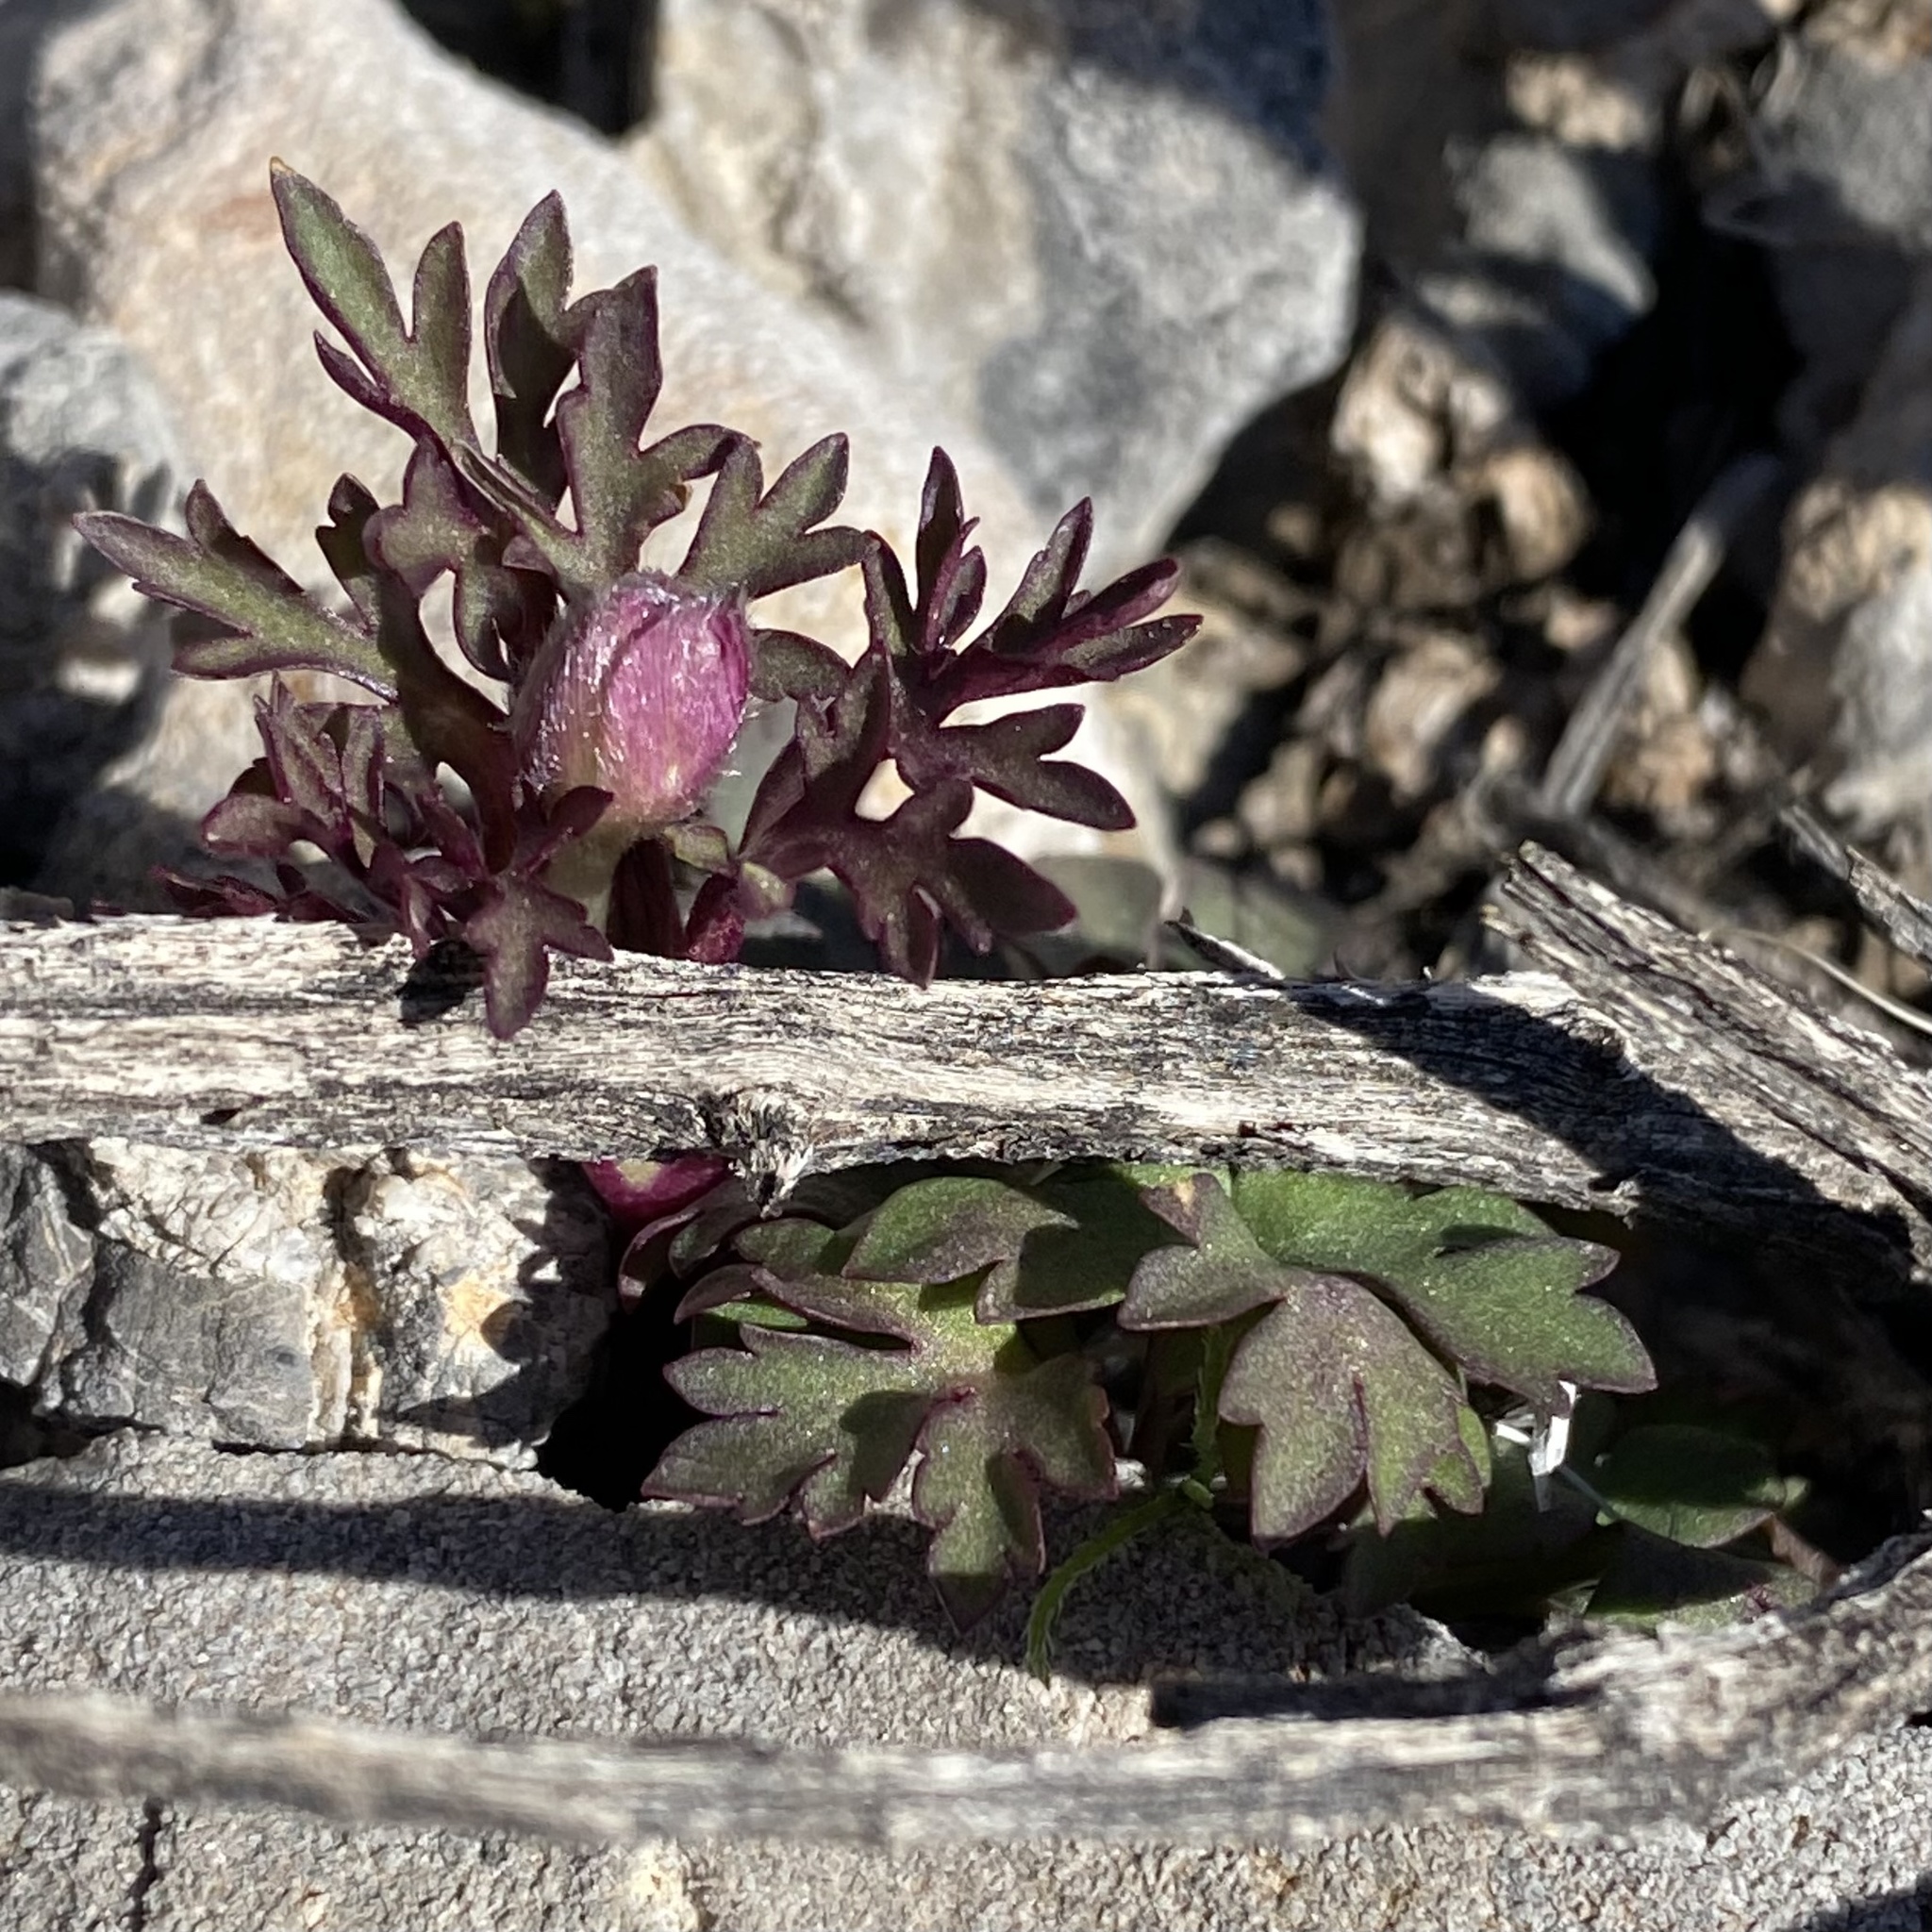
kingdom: Plantae
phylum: Tracheophyta
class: Magnoliopsida
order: Ranunculales
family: Ranunculaceae
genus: Anemone
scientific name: Anemone tuberosa
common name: Desert anemone
